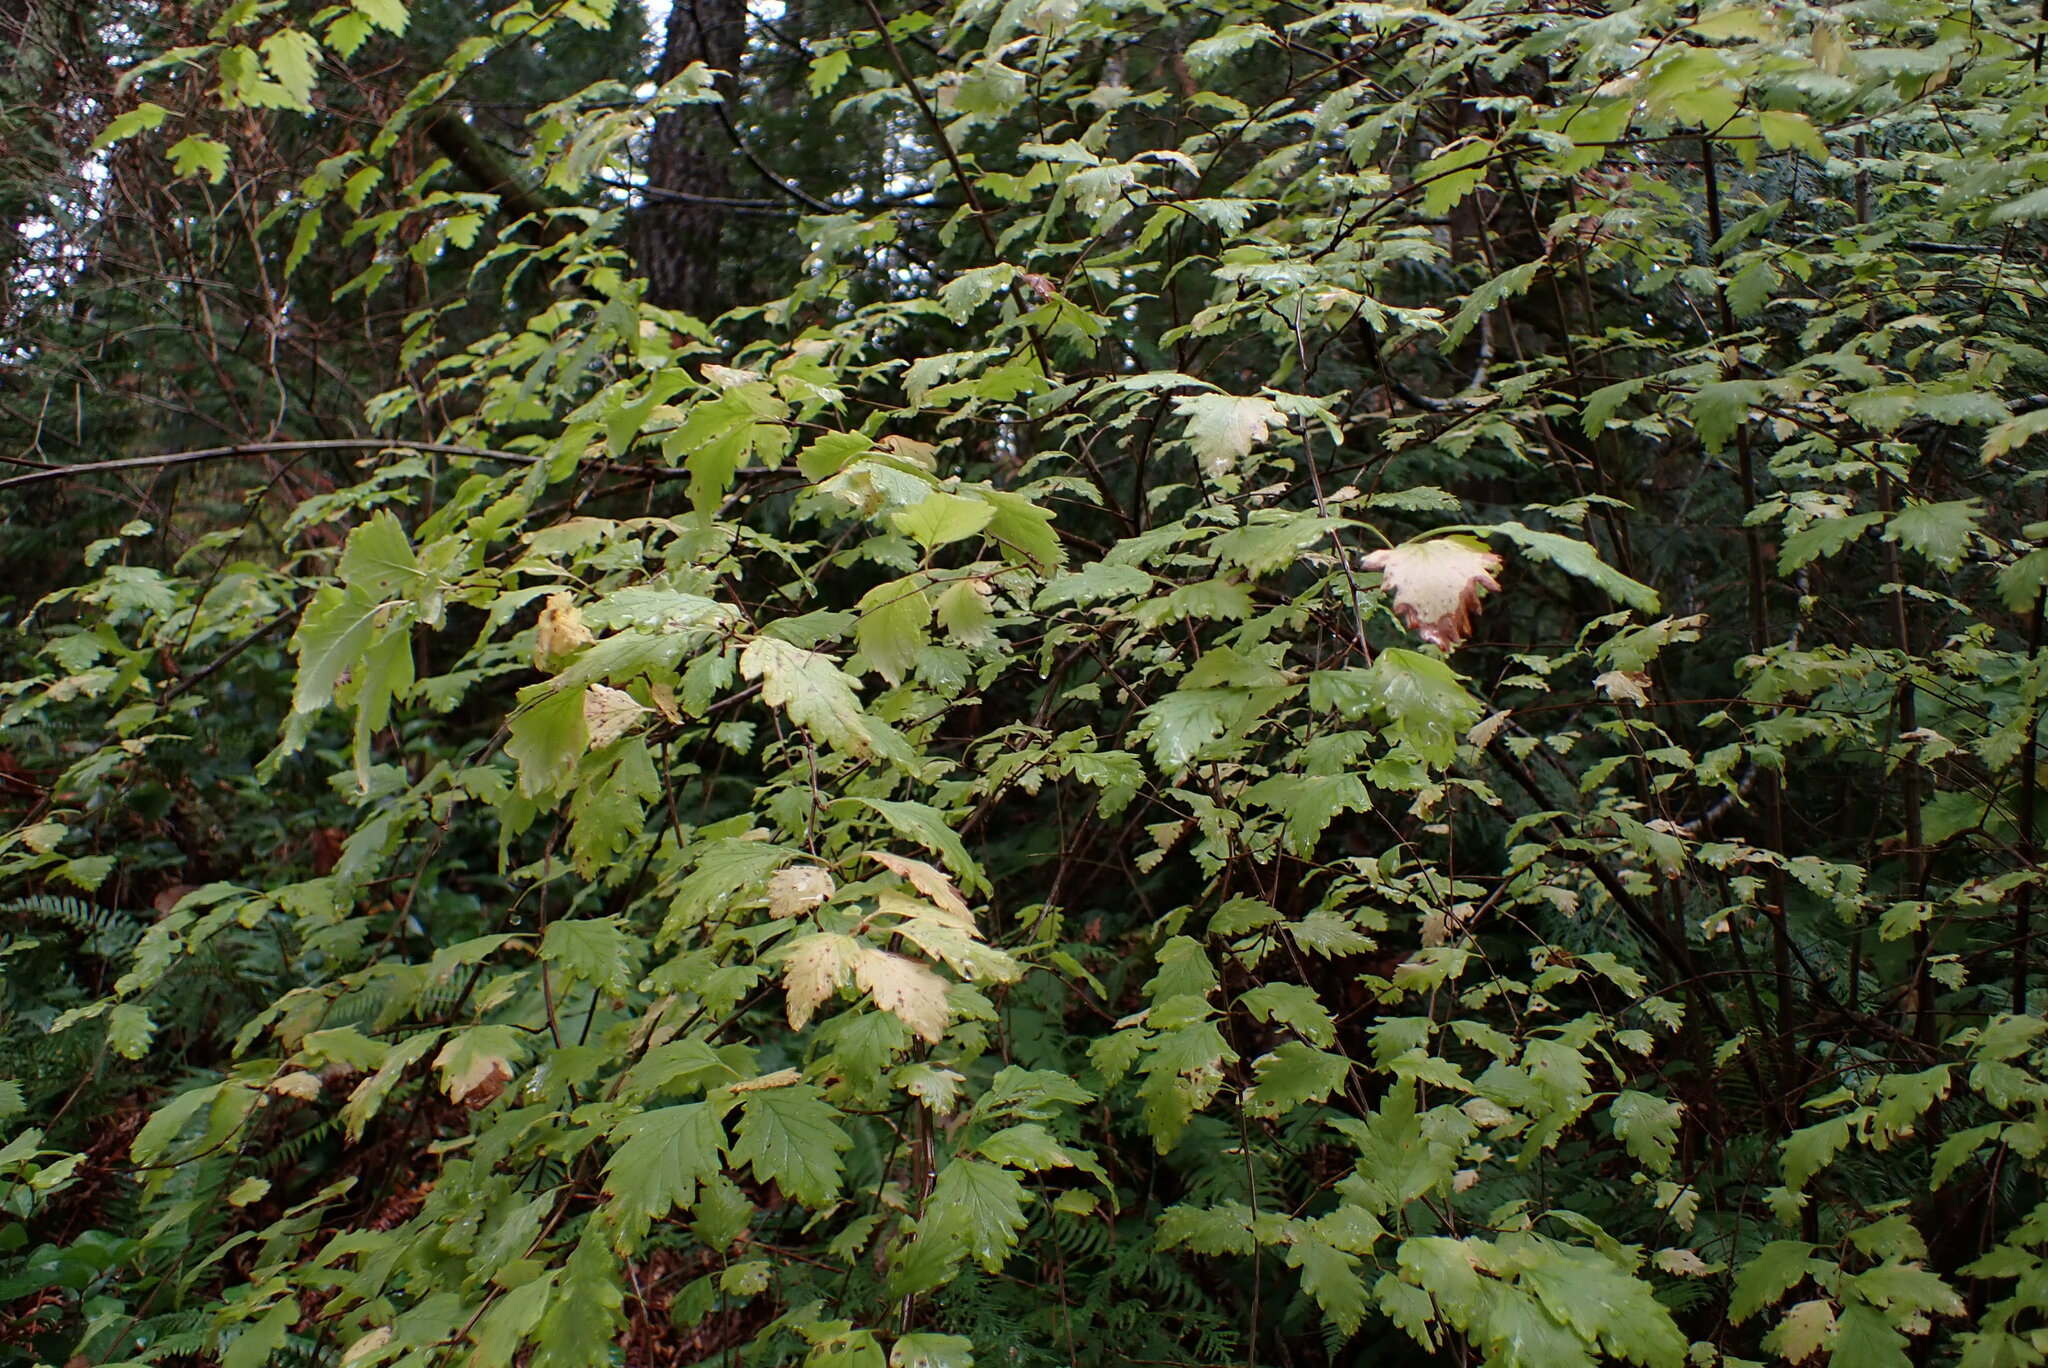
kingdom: Plantae
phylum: Tracheophyta
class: Magnoliopsida
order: Rosales
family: Rosaceae
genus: Holodiscus
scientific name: Holodiscus discolor
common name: Oceanspray
